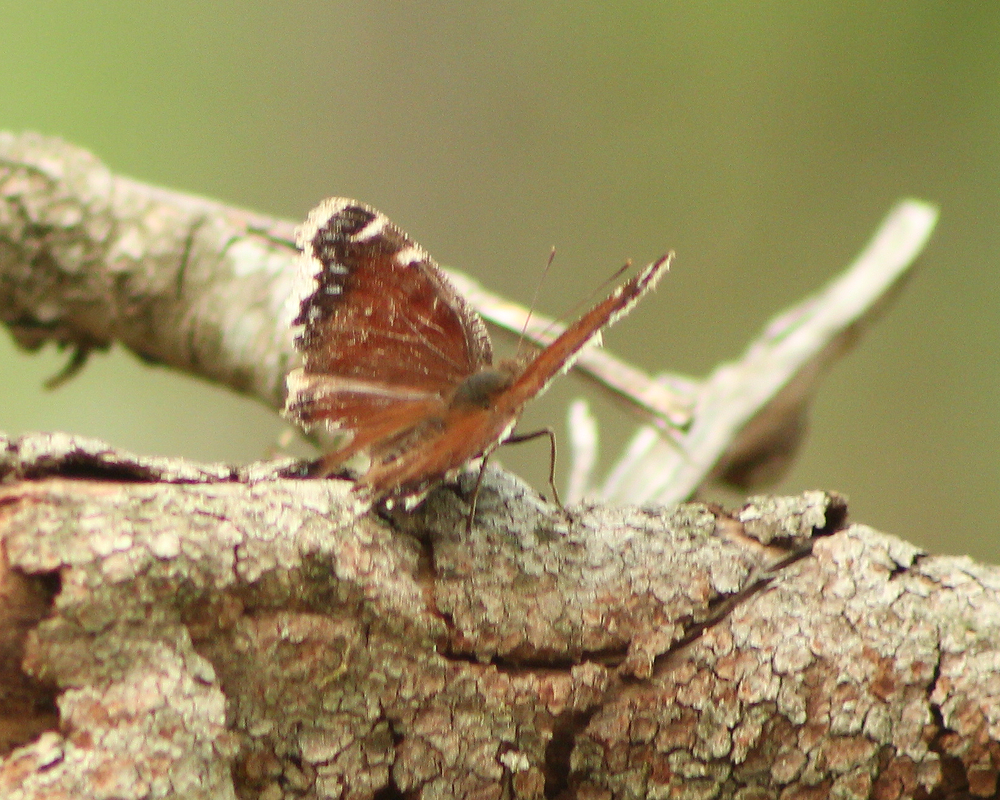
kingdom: Animalia
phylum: Arthropoda
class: Insecta
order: Lepidoptera
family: Nymphalidae
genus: Nymphalis
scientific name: Nymphalis antiopa
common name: Camberwell beauty
